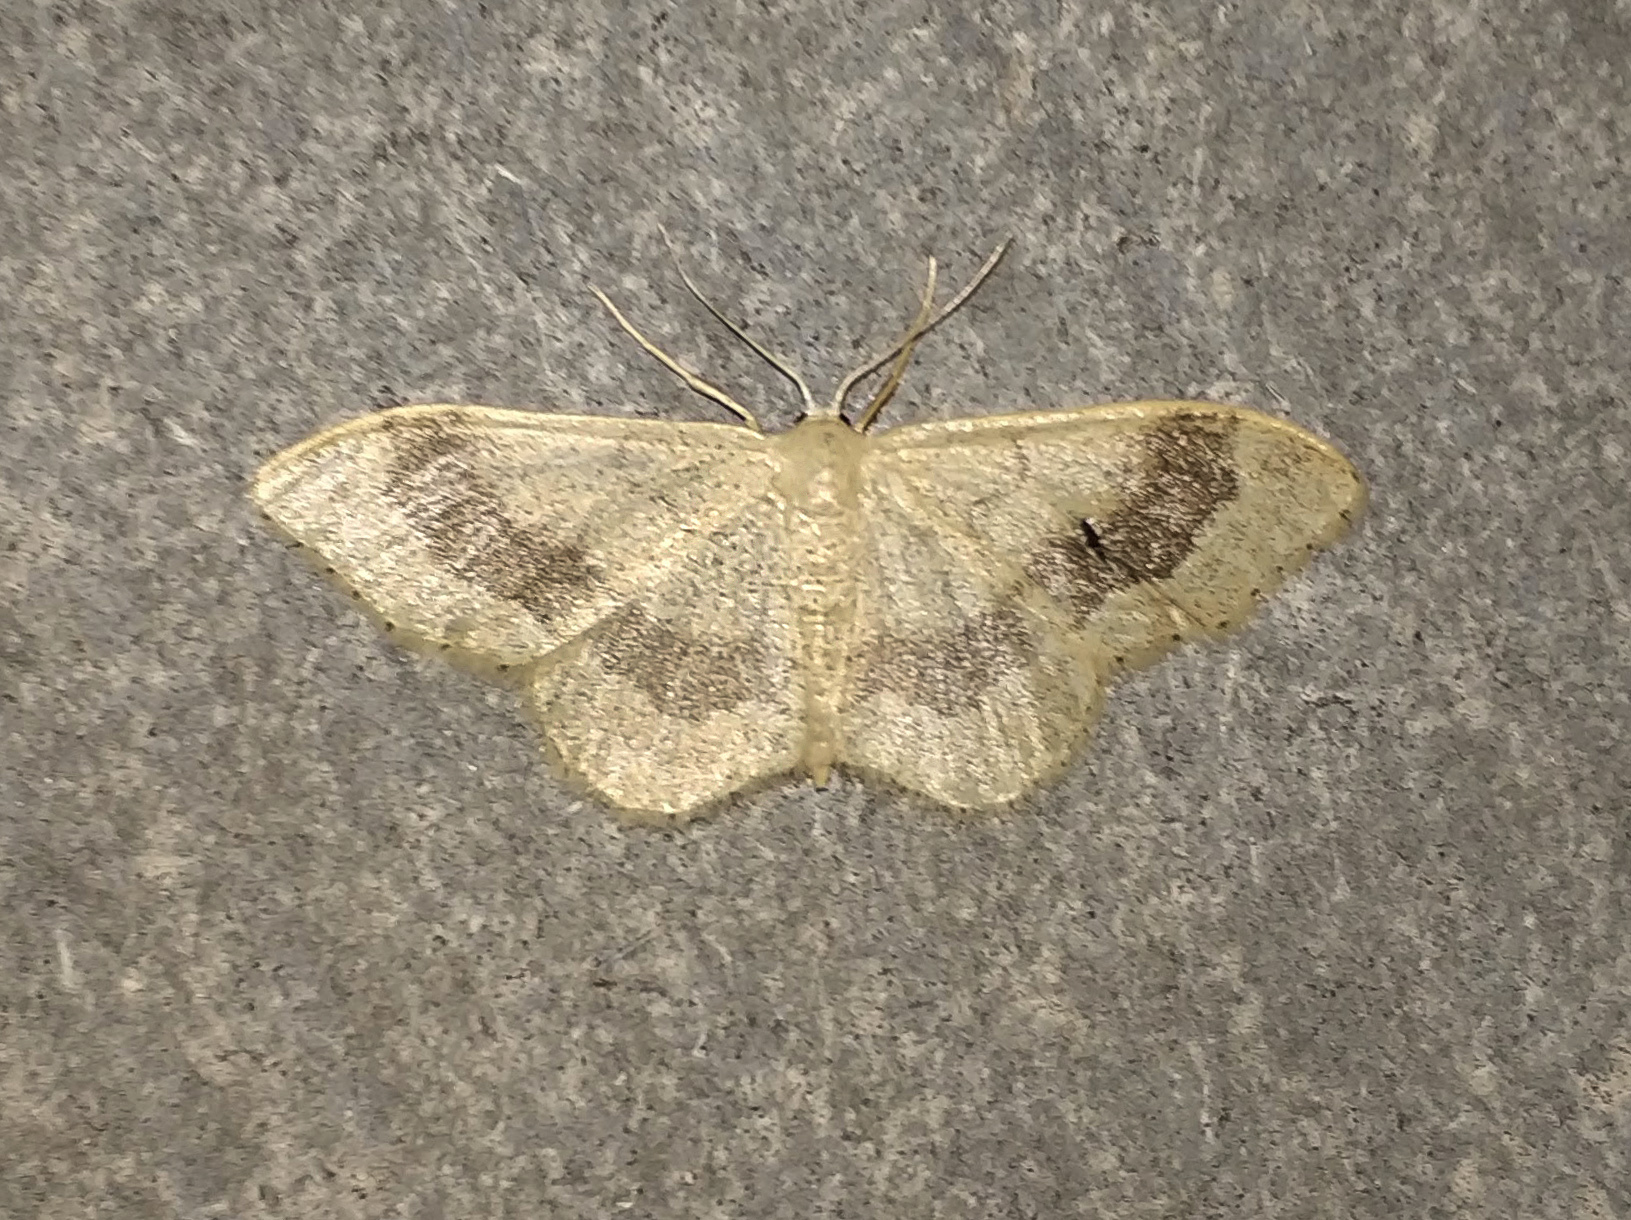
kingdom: Animalia
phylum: Arthropoda
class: Insecta
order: Lepidoptera
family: Geometridae
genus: Idaea
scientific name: Idaea aversata
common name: Riband wave
